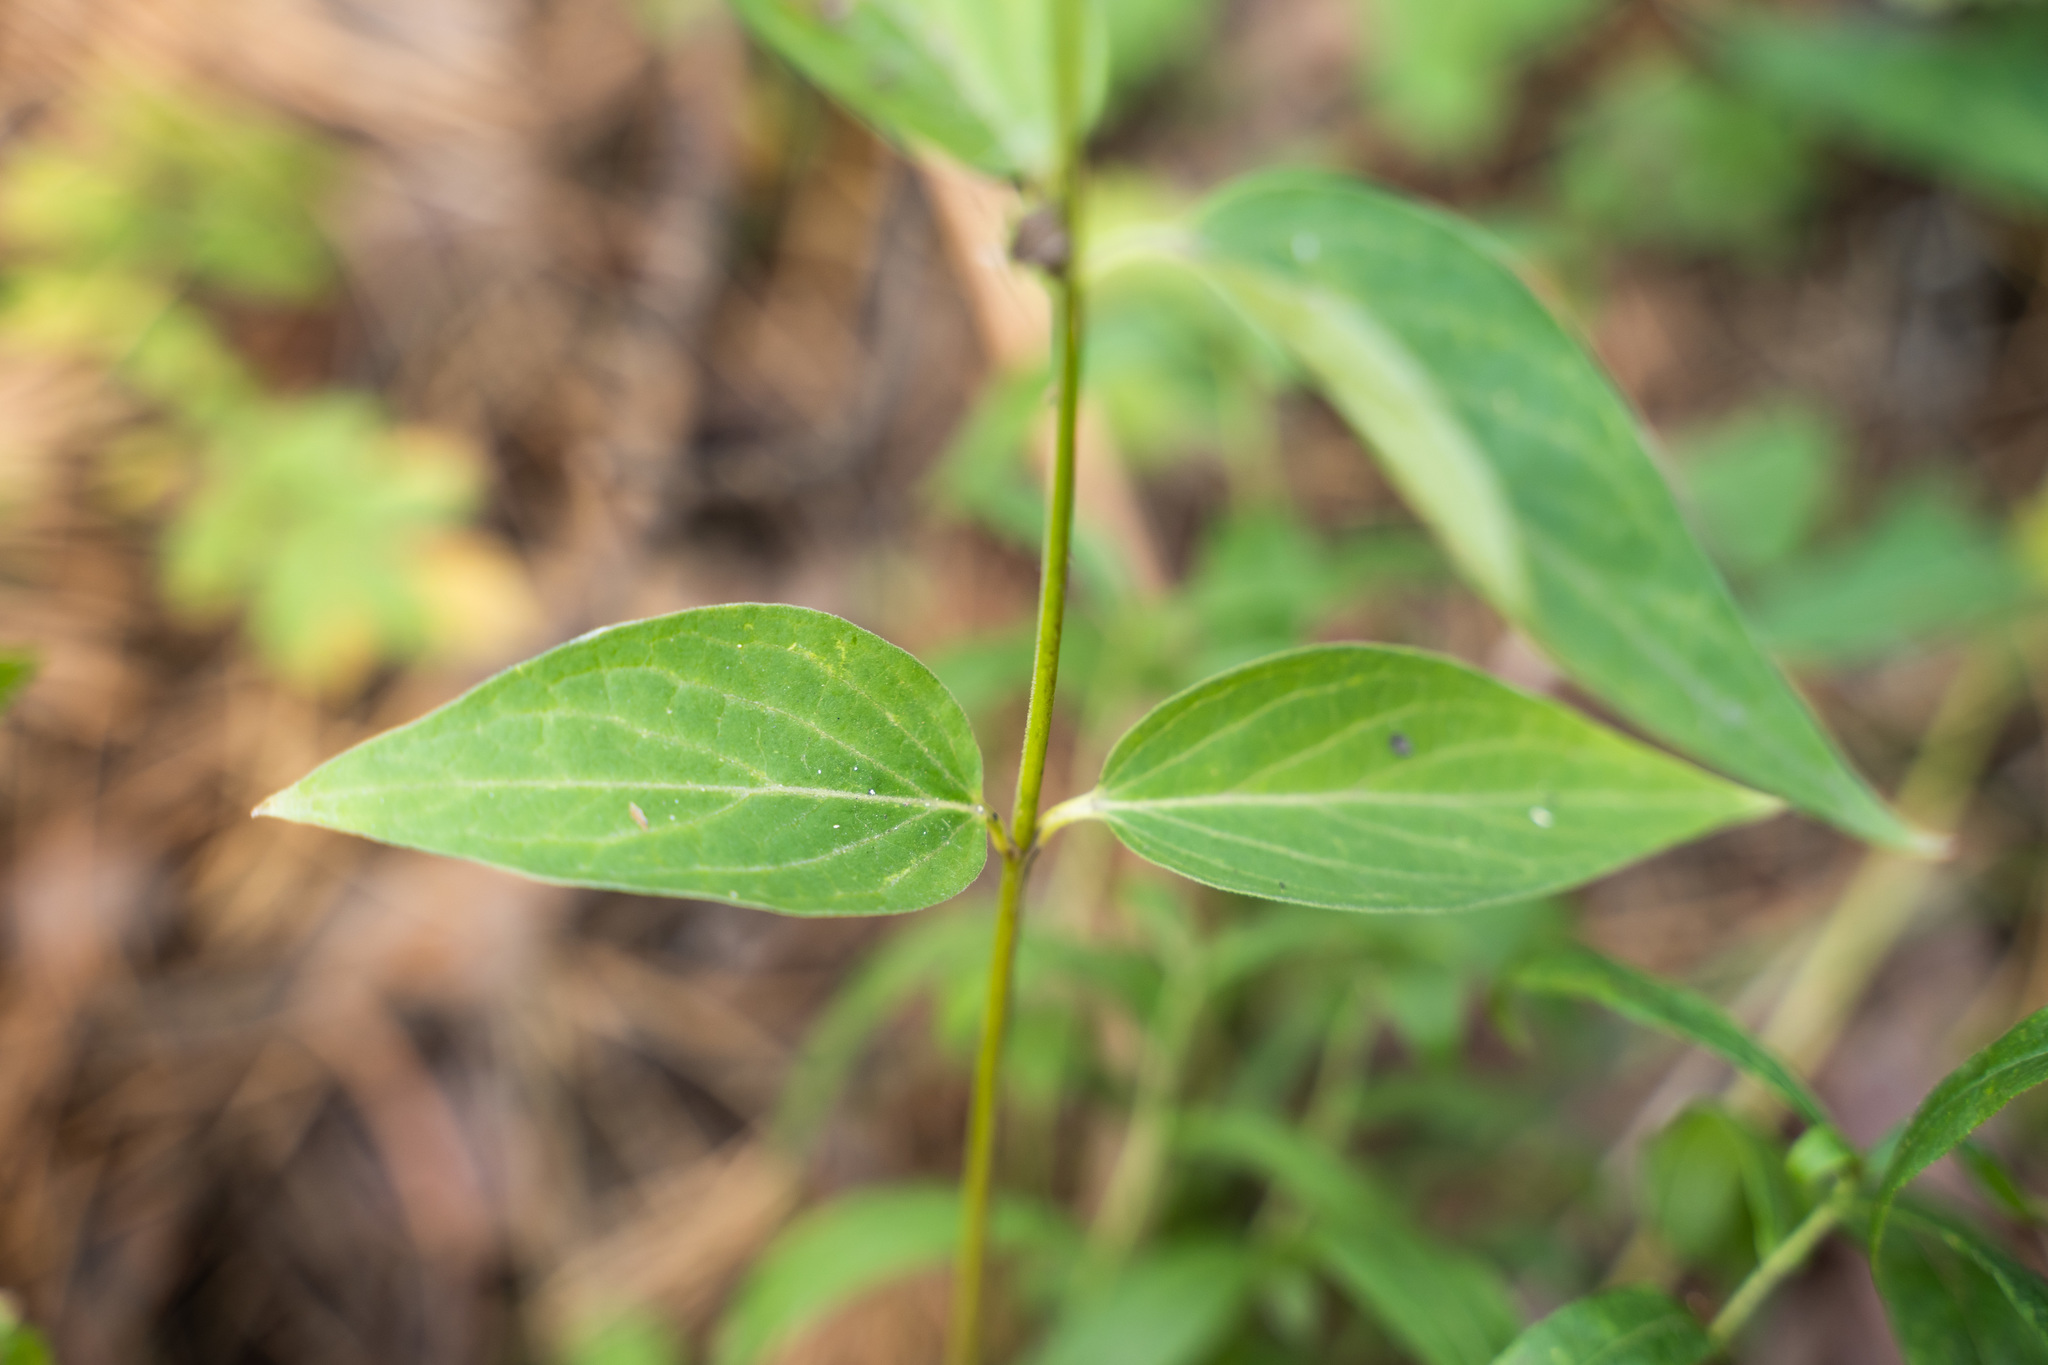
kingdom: Plantae
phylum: Tracheophyta
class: Magnoliopsida
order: Gentianales
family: Apocynaceae
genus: Vincetoxicum
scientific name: Vincetoxicum hirundinaria
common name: White swallowwort
